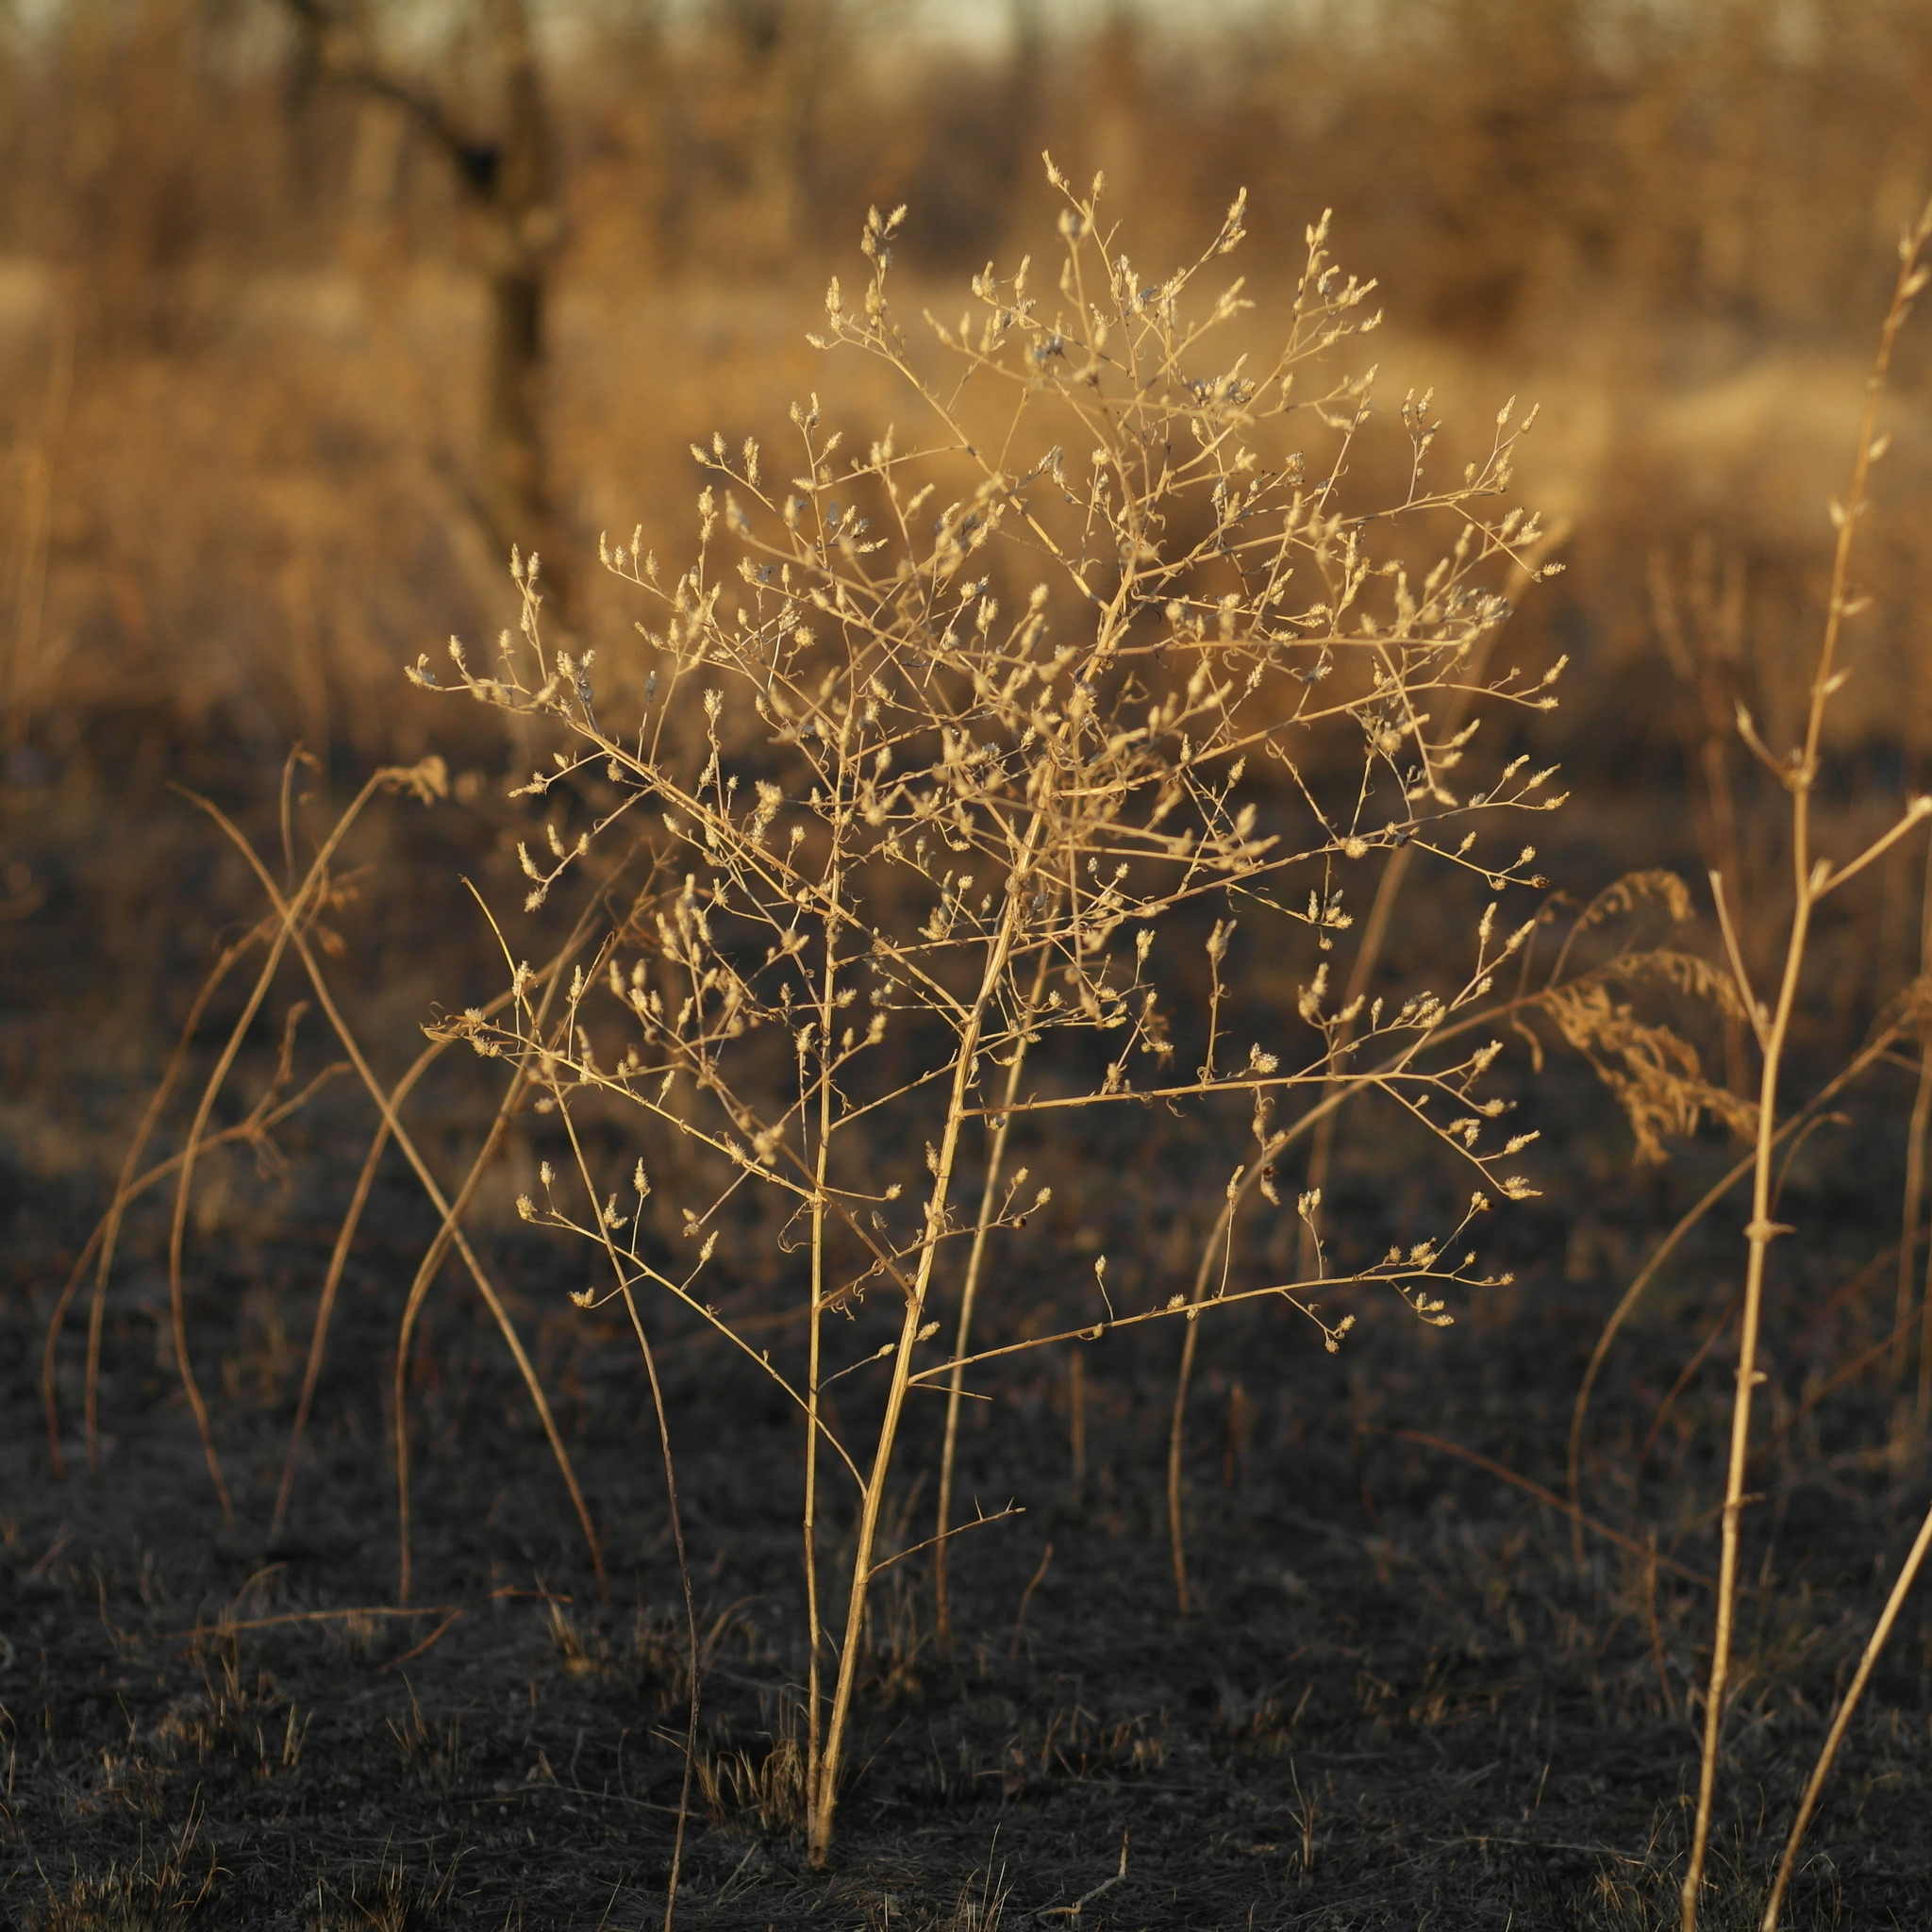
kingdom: Plantae
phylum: Tracheophyta
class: Magnoliopsida
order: Asterales
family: Asteraceae
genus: Centaurea
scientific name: Centaurea diffusa
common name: Diffuse knapweed
